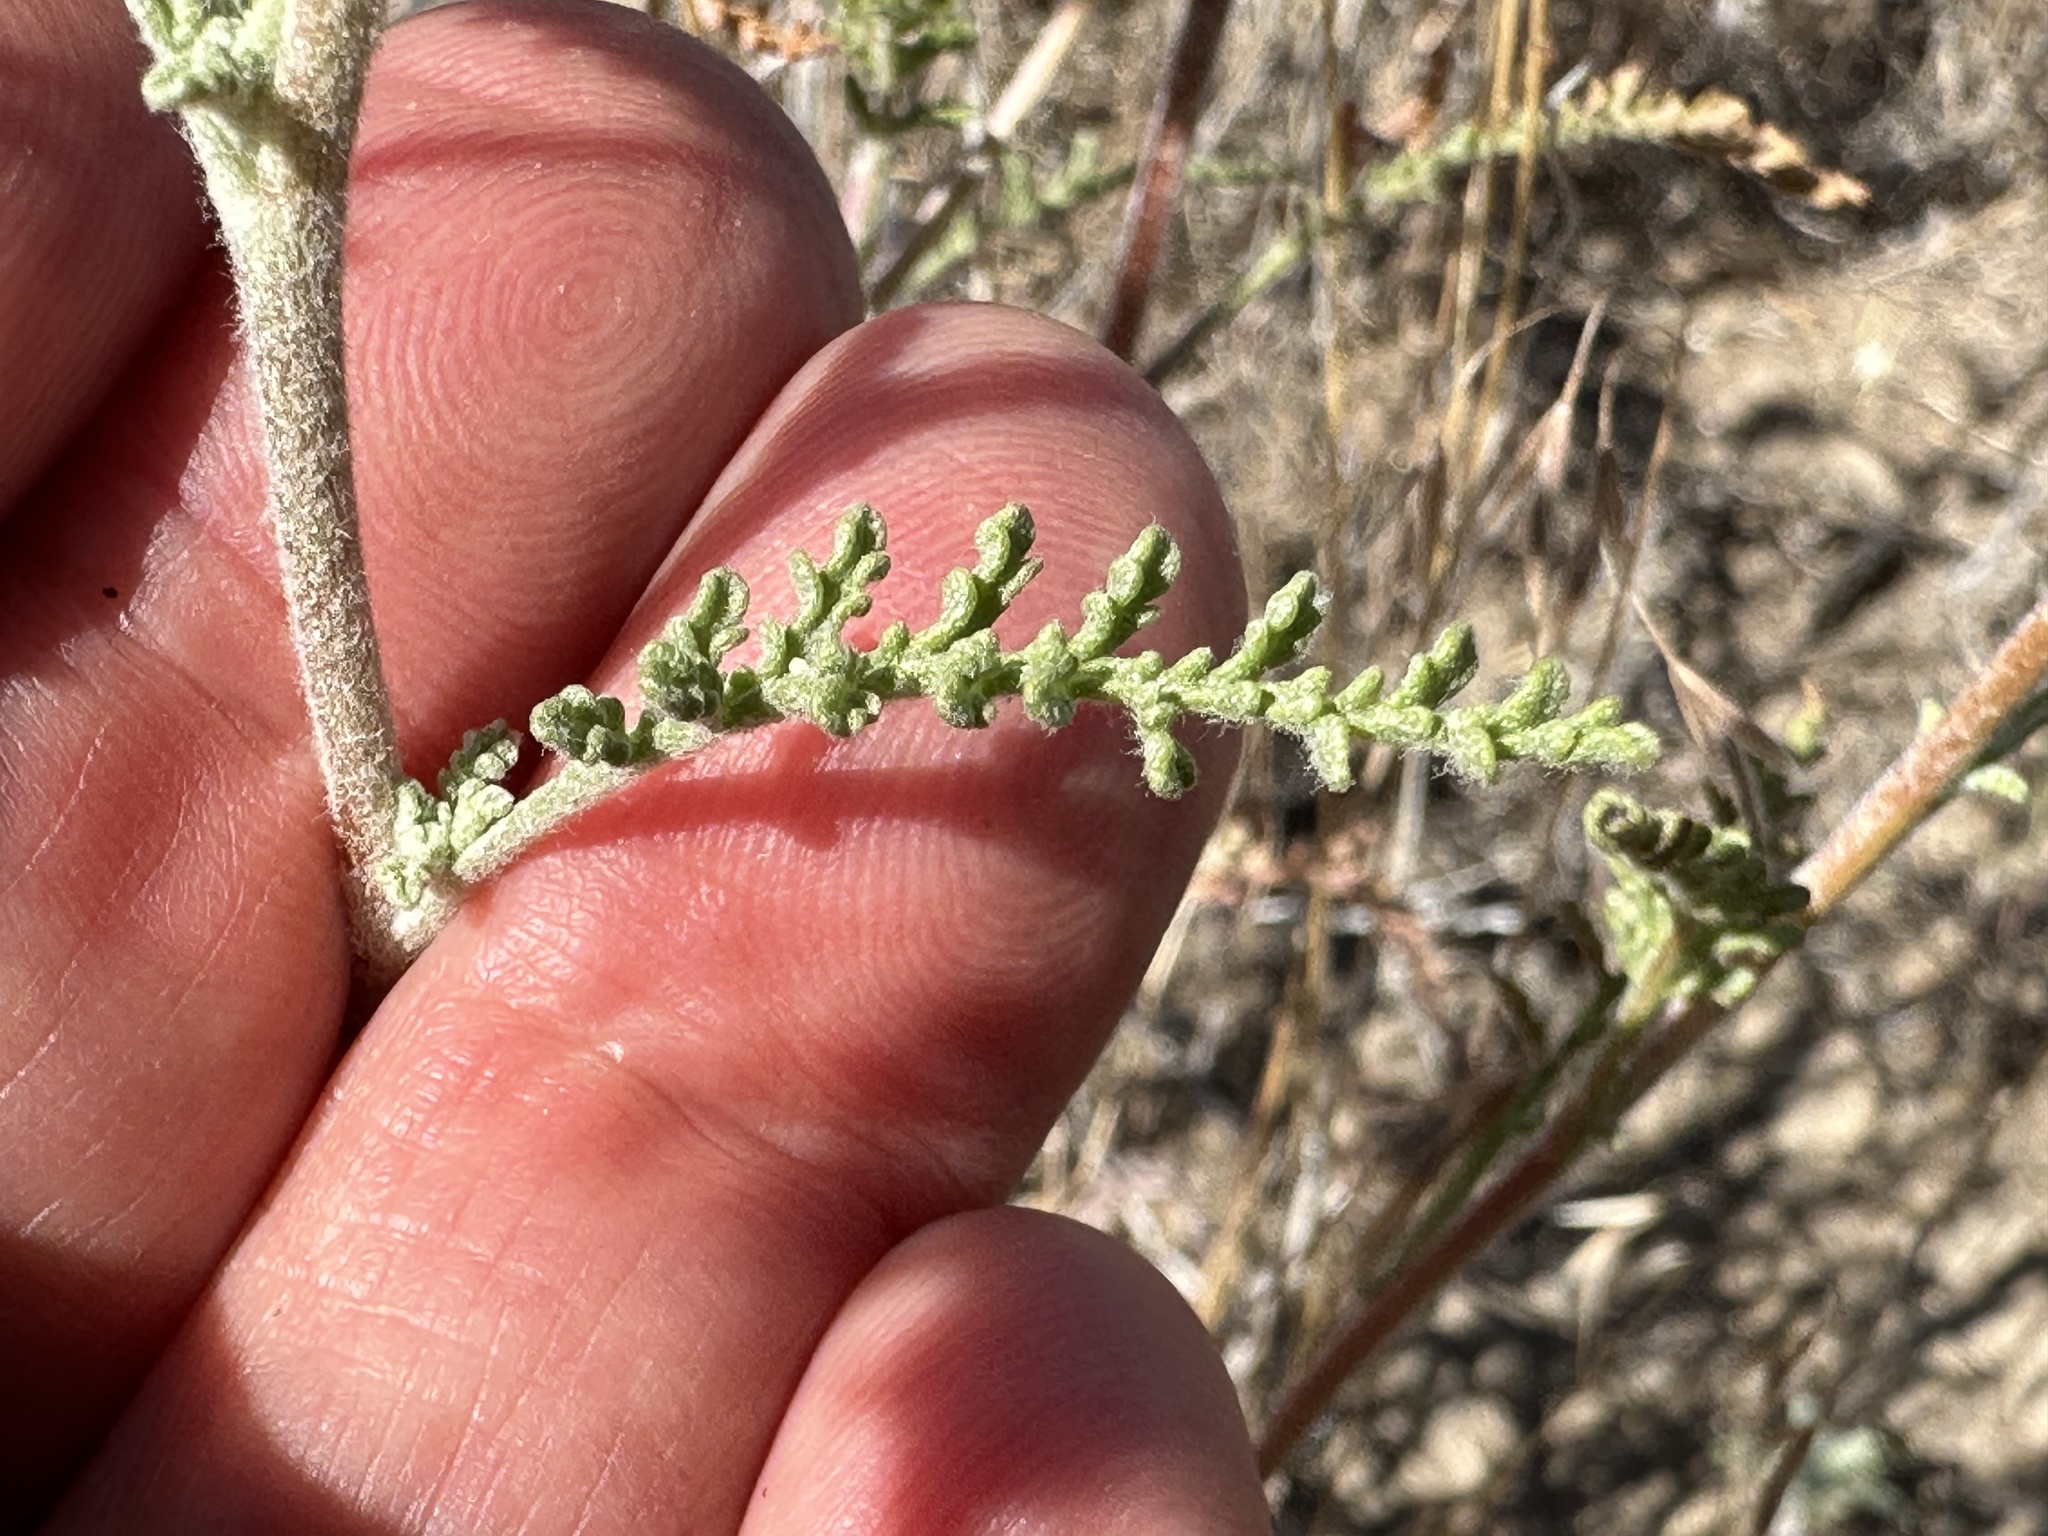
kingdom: Plantae
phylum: Tracheophyta
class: Magnoliopsida
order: Asterales
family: Asteraceae
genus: Chaenactis
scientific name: Chaenactis douglasii
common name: Hoary pincushion
